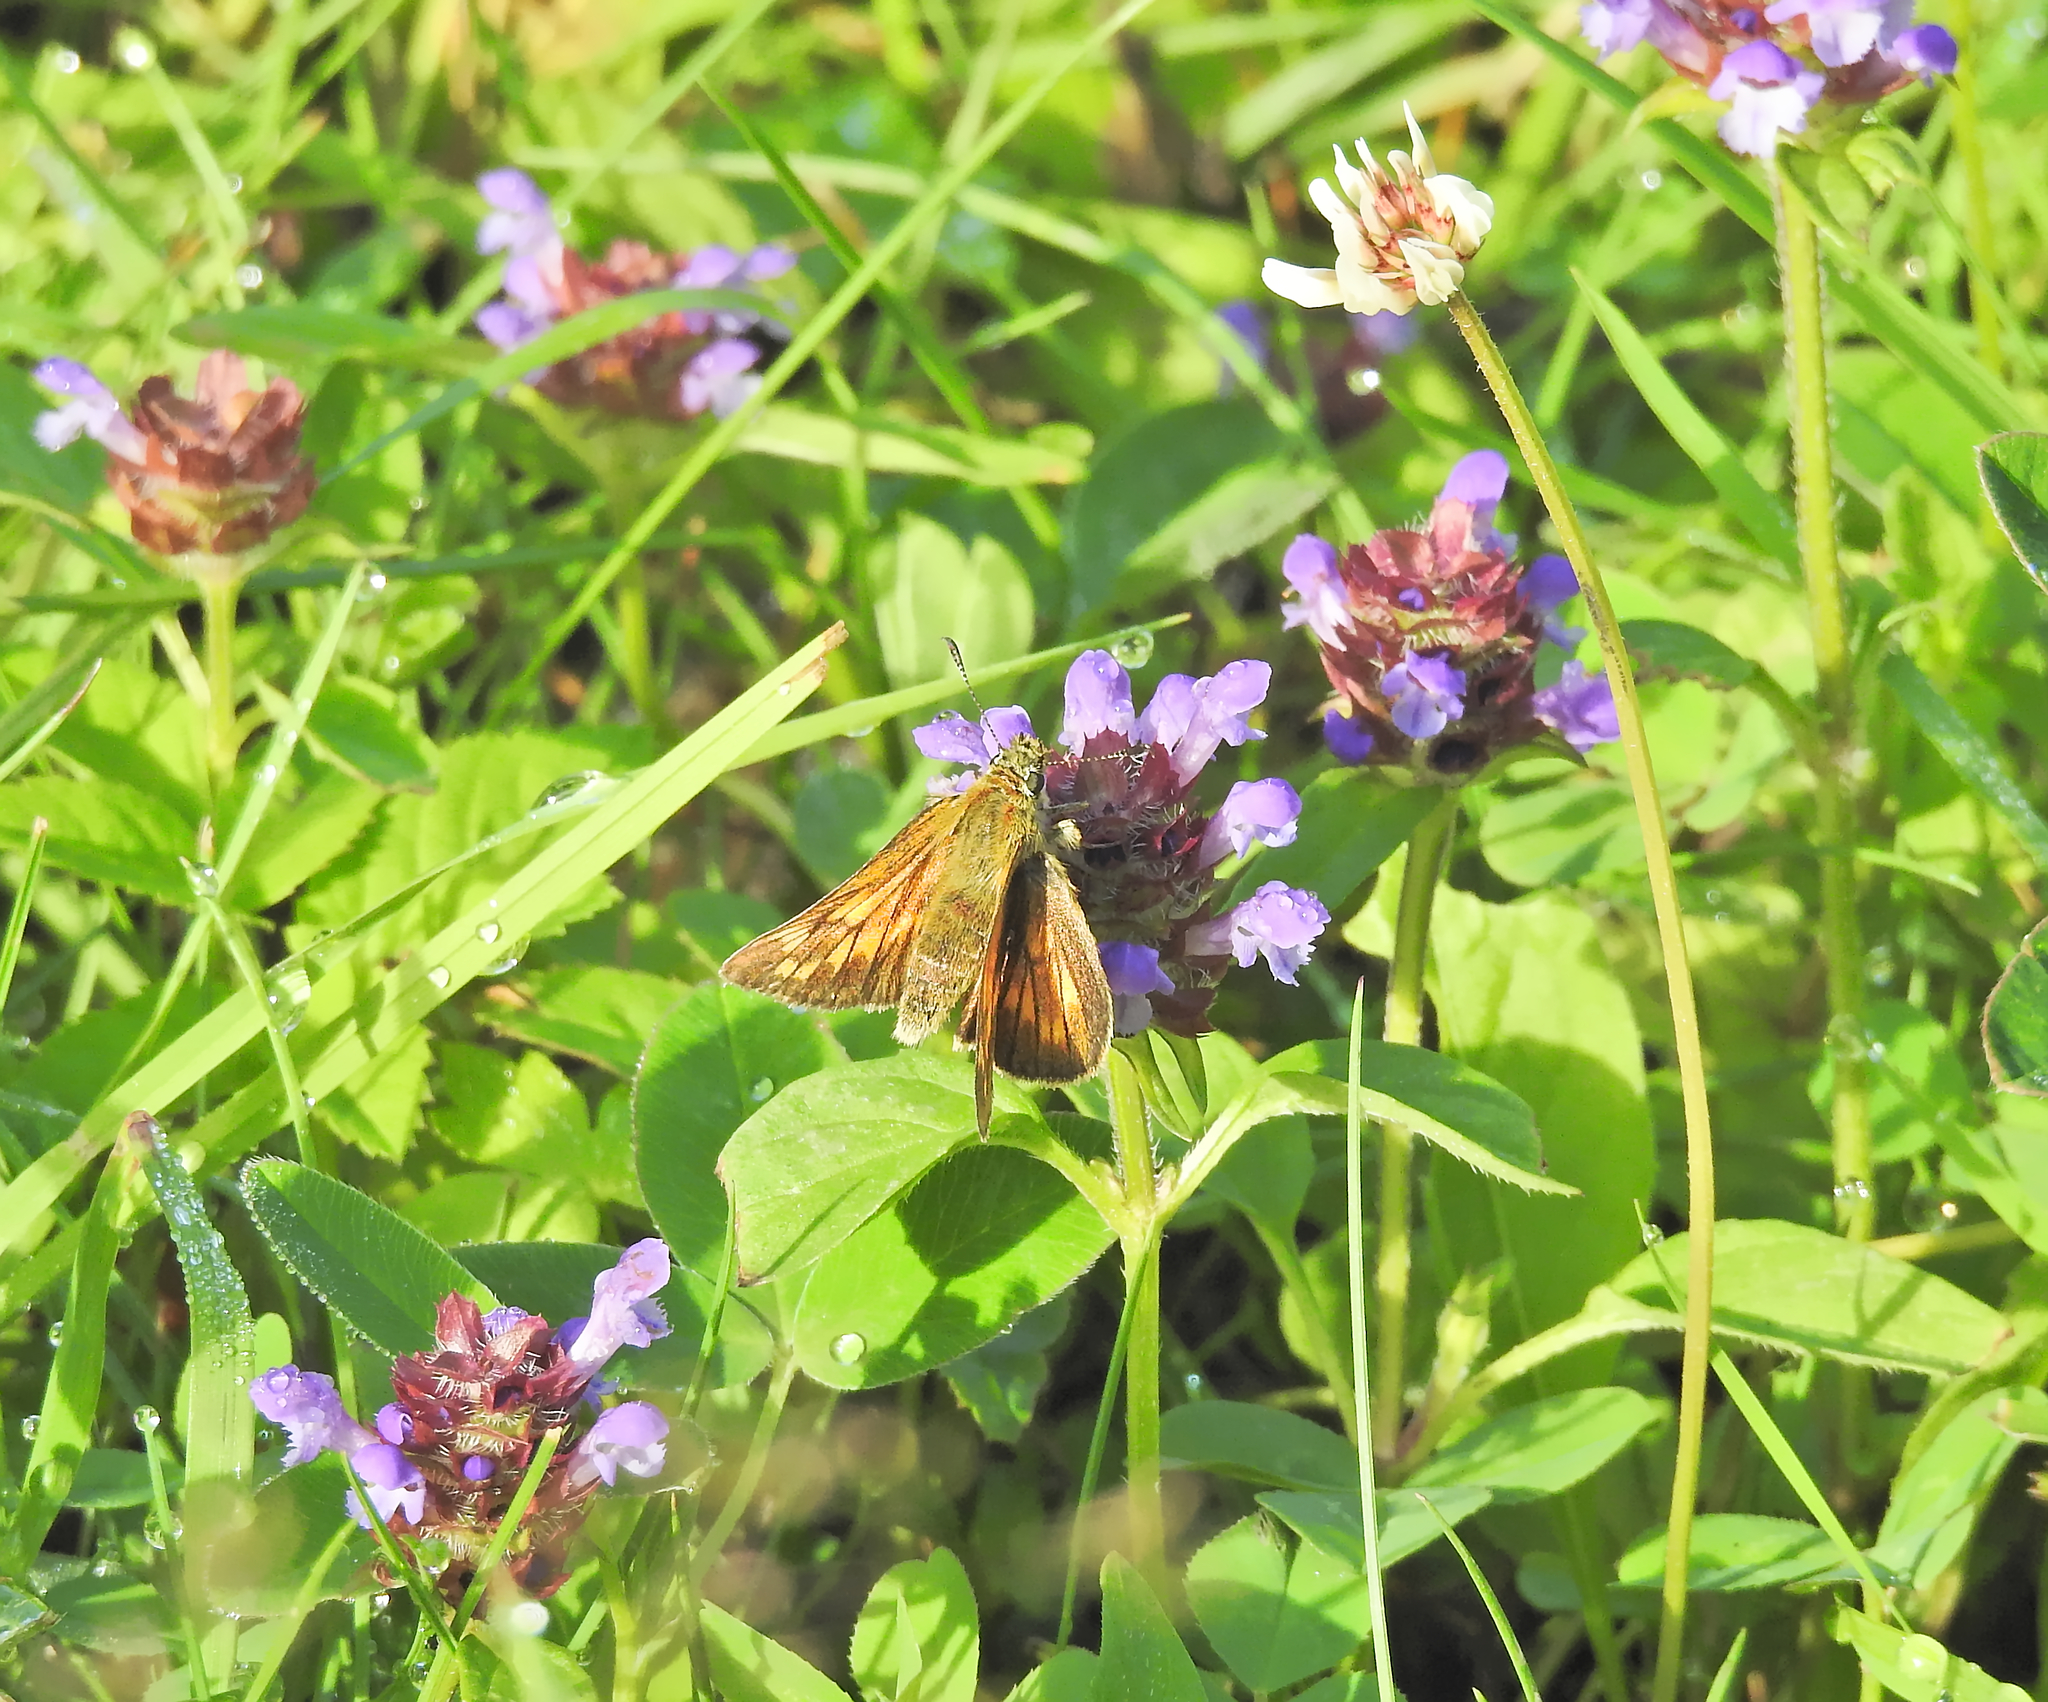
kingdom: Animalia
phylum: Arthropoda
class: Insecta
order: Lepidoptera
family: Hesperiidae
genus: Ochlodes
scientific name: Ochlodes venata
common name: Large skipper
